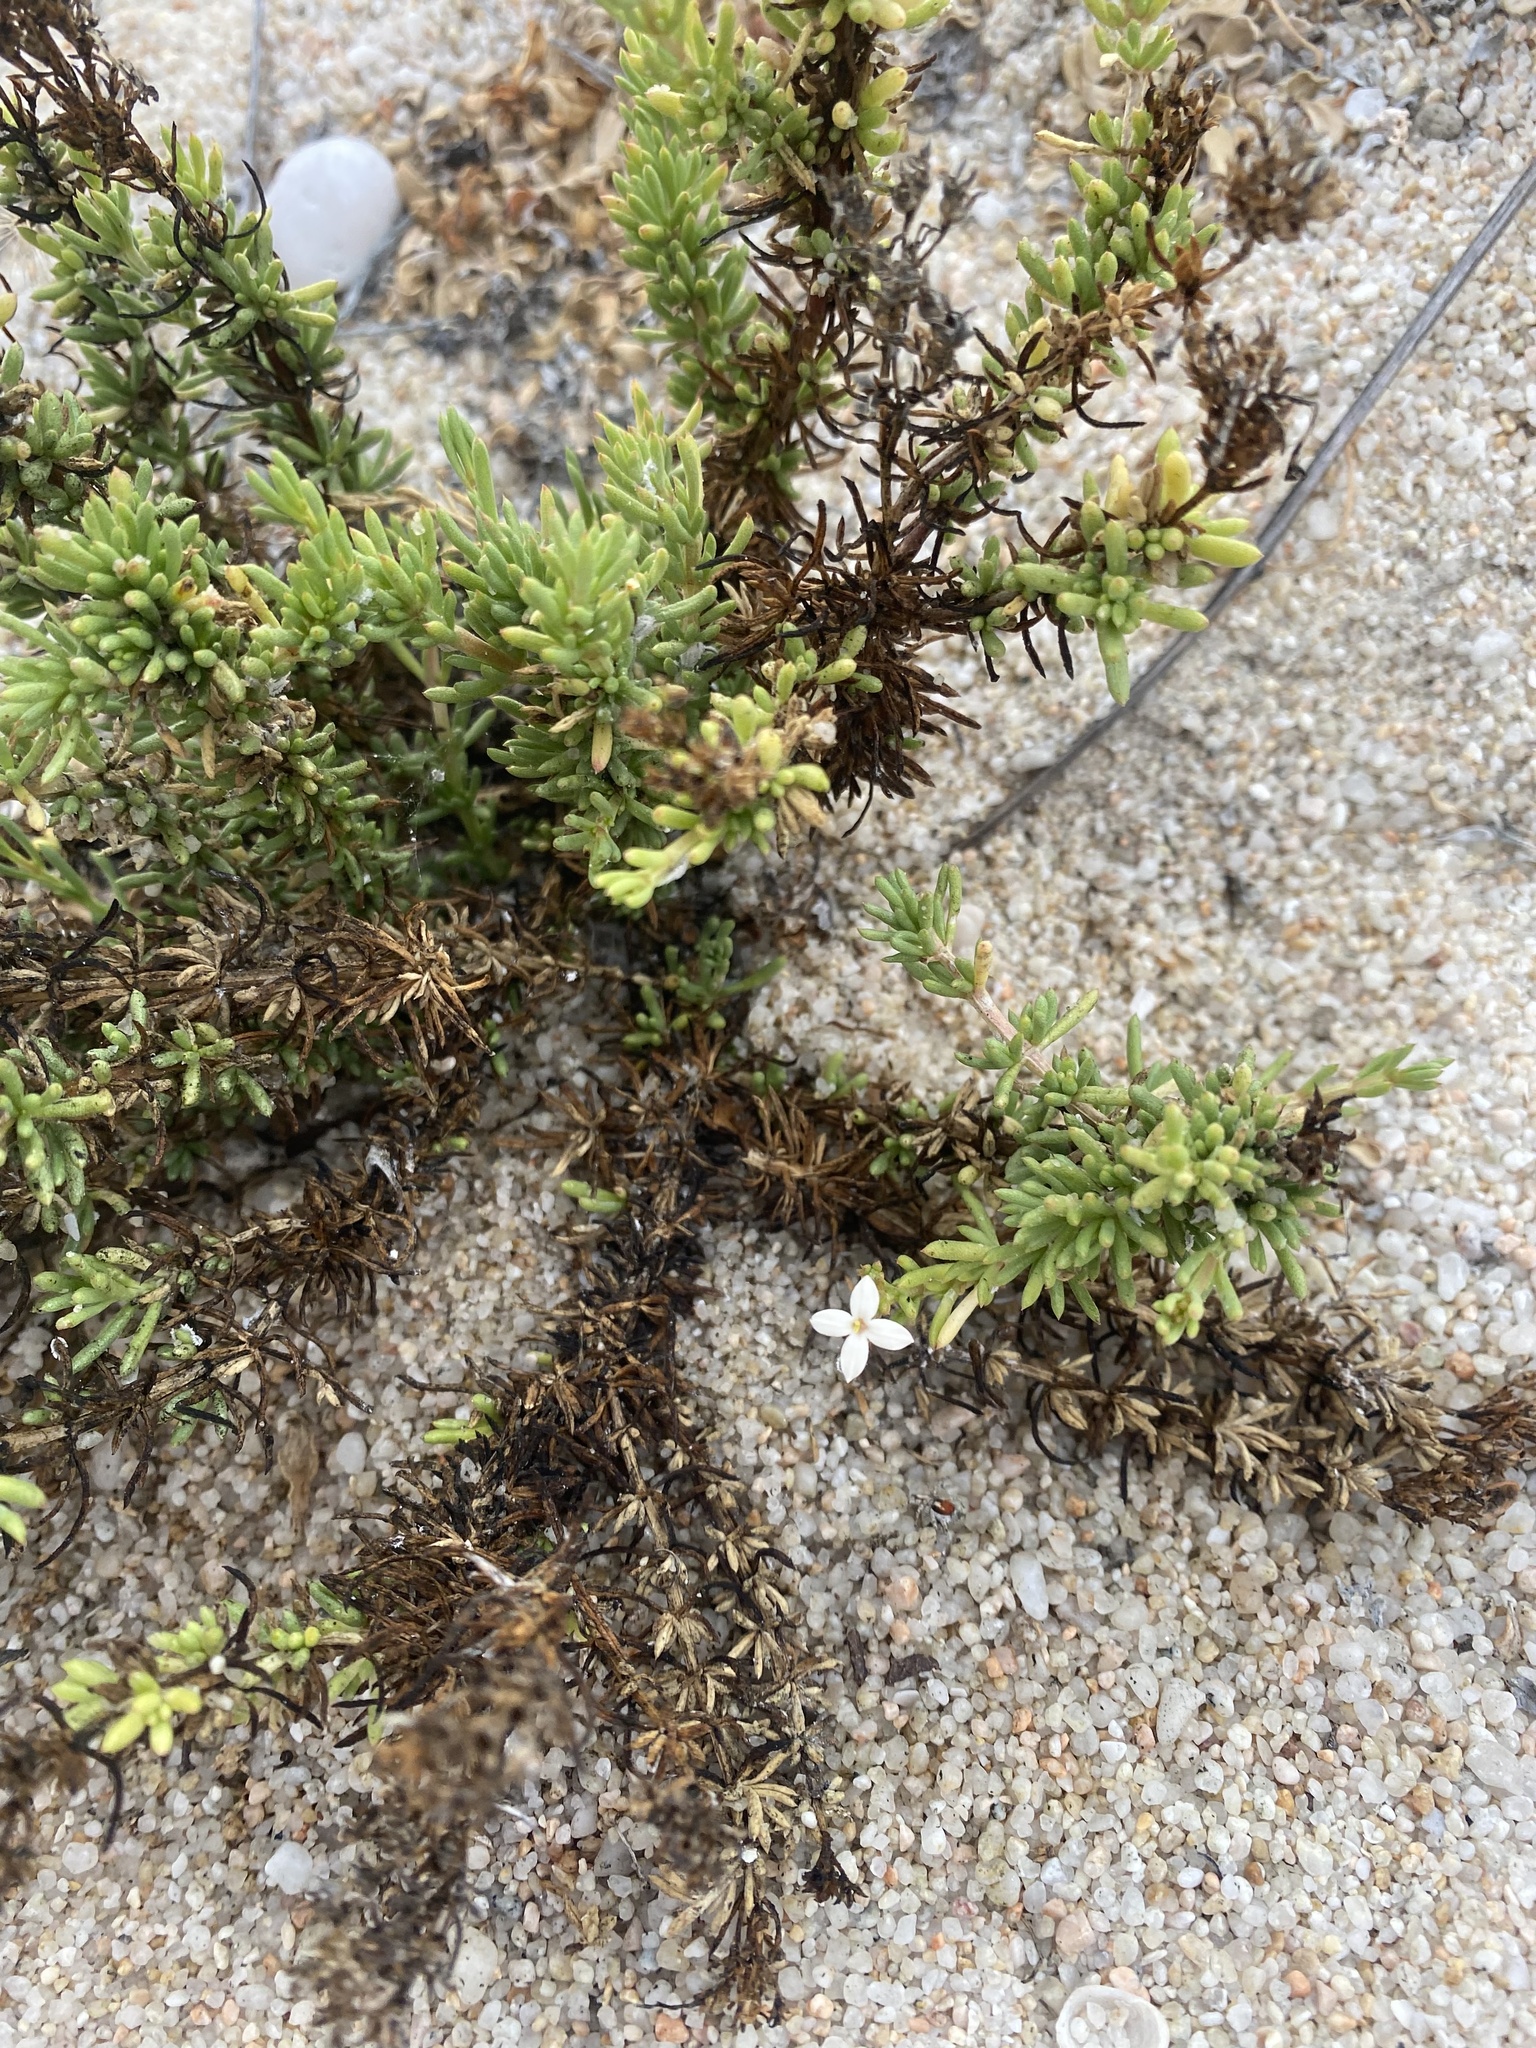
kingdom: Plantae
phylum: Tracheophyta
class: Magnoliopsida
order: Gentianales
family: Rubiaceae
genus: Stenotis
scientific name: Stenotis mucronata
